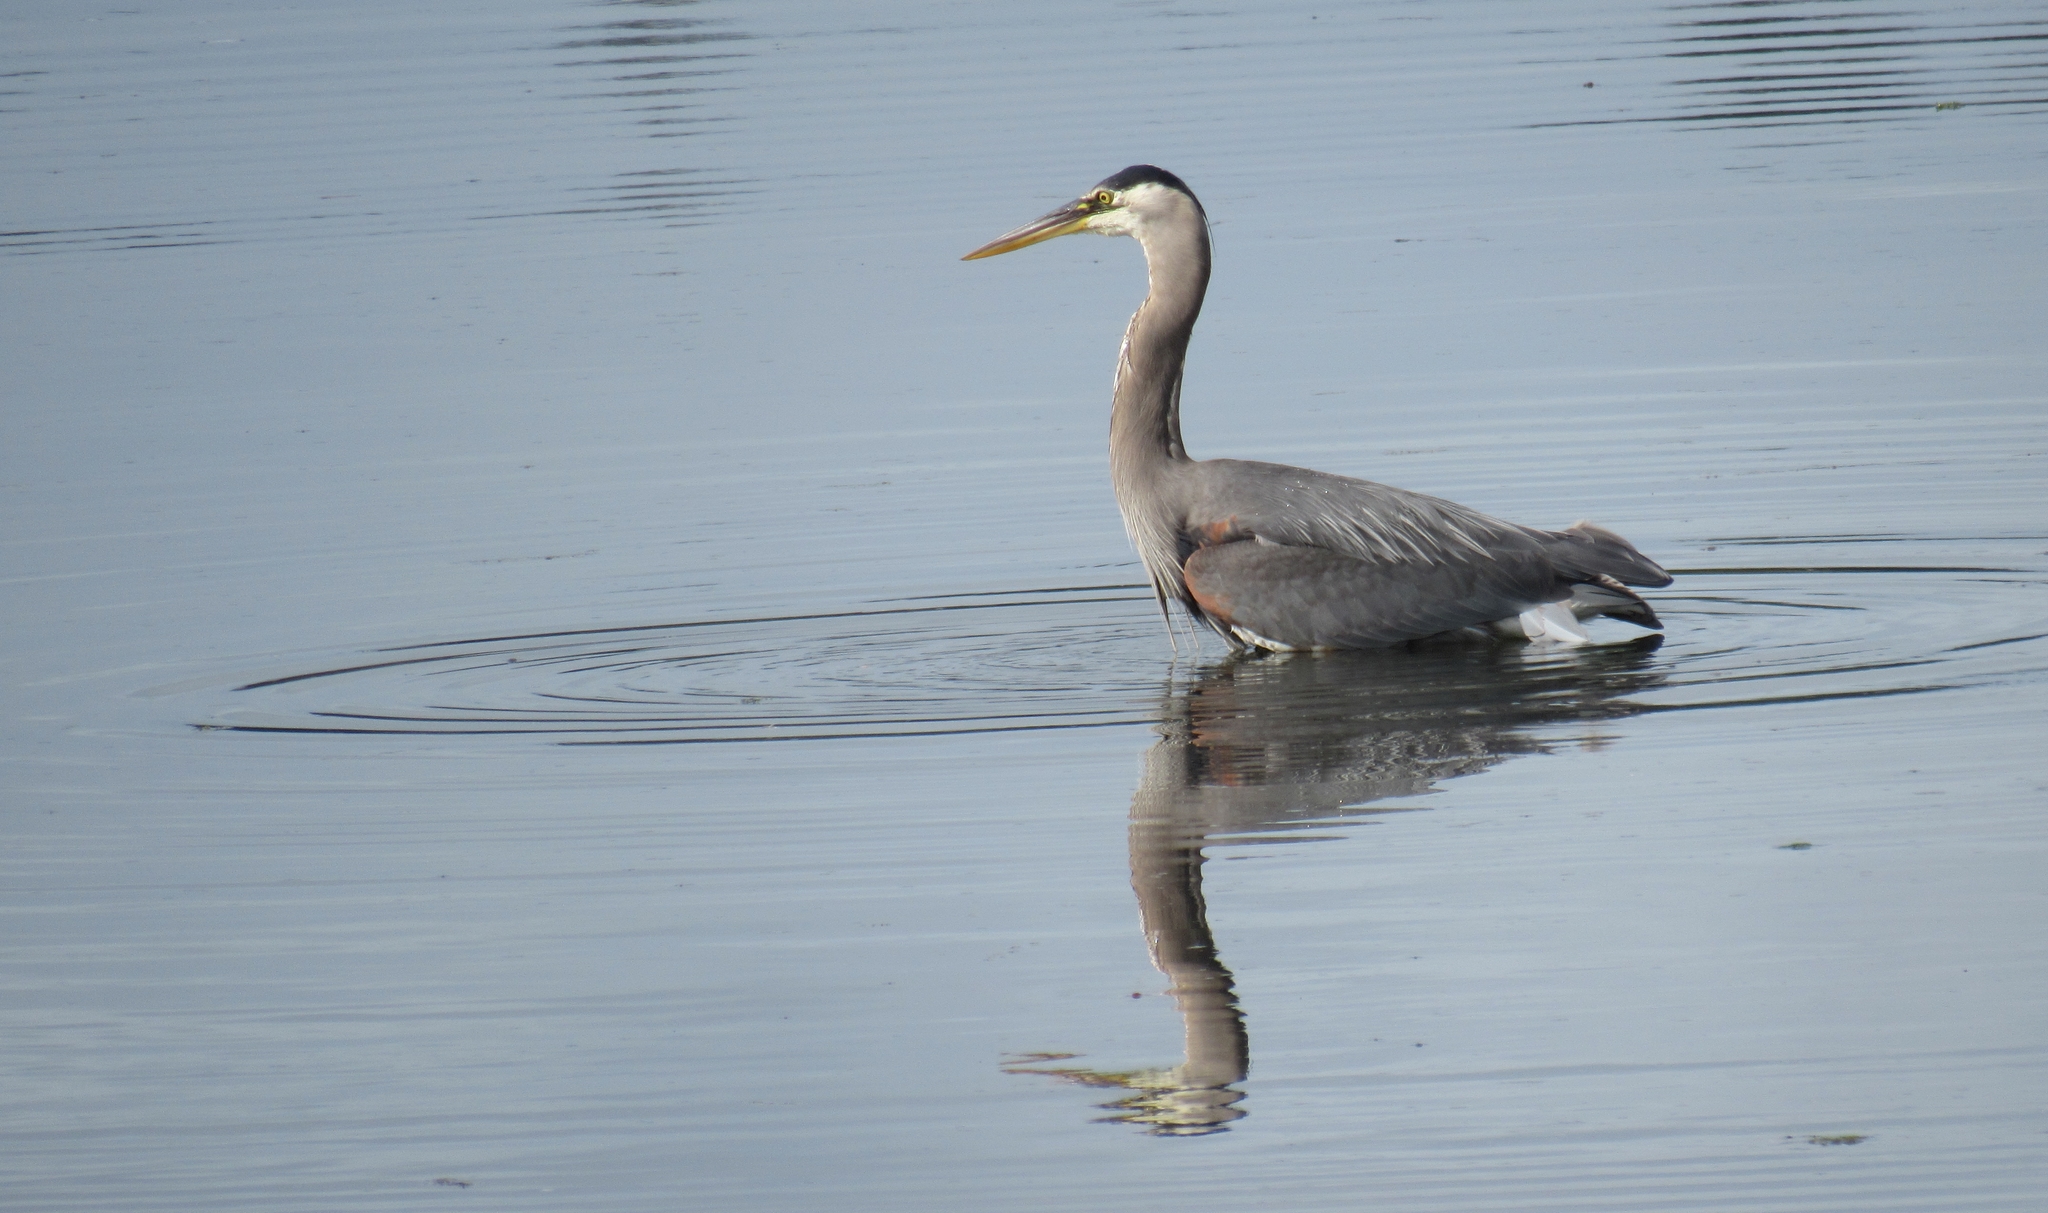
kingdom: Animalia
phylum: Chordata
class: Aves
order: Pelecaniformes
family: Ardeidae
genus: Ardea
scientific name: Ardea herodias
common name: Great blue heron
